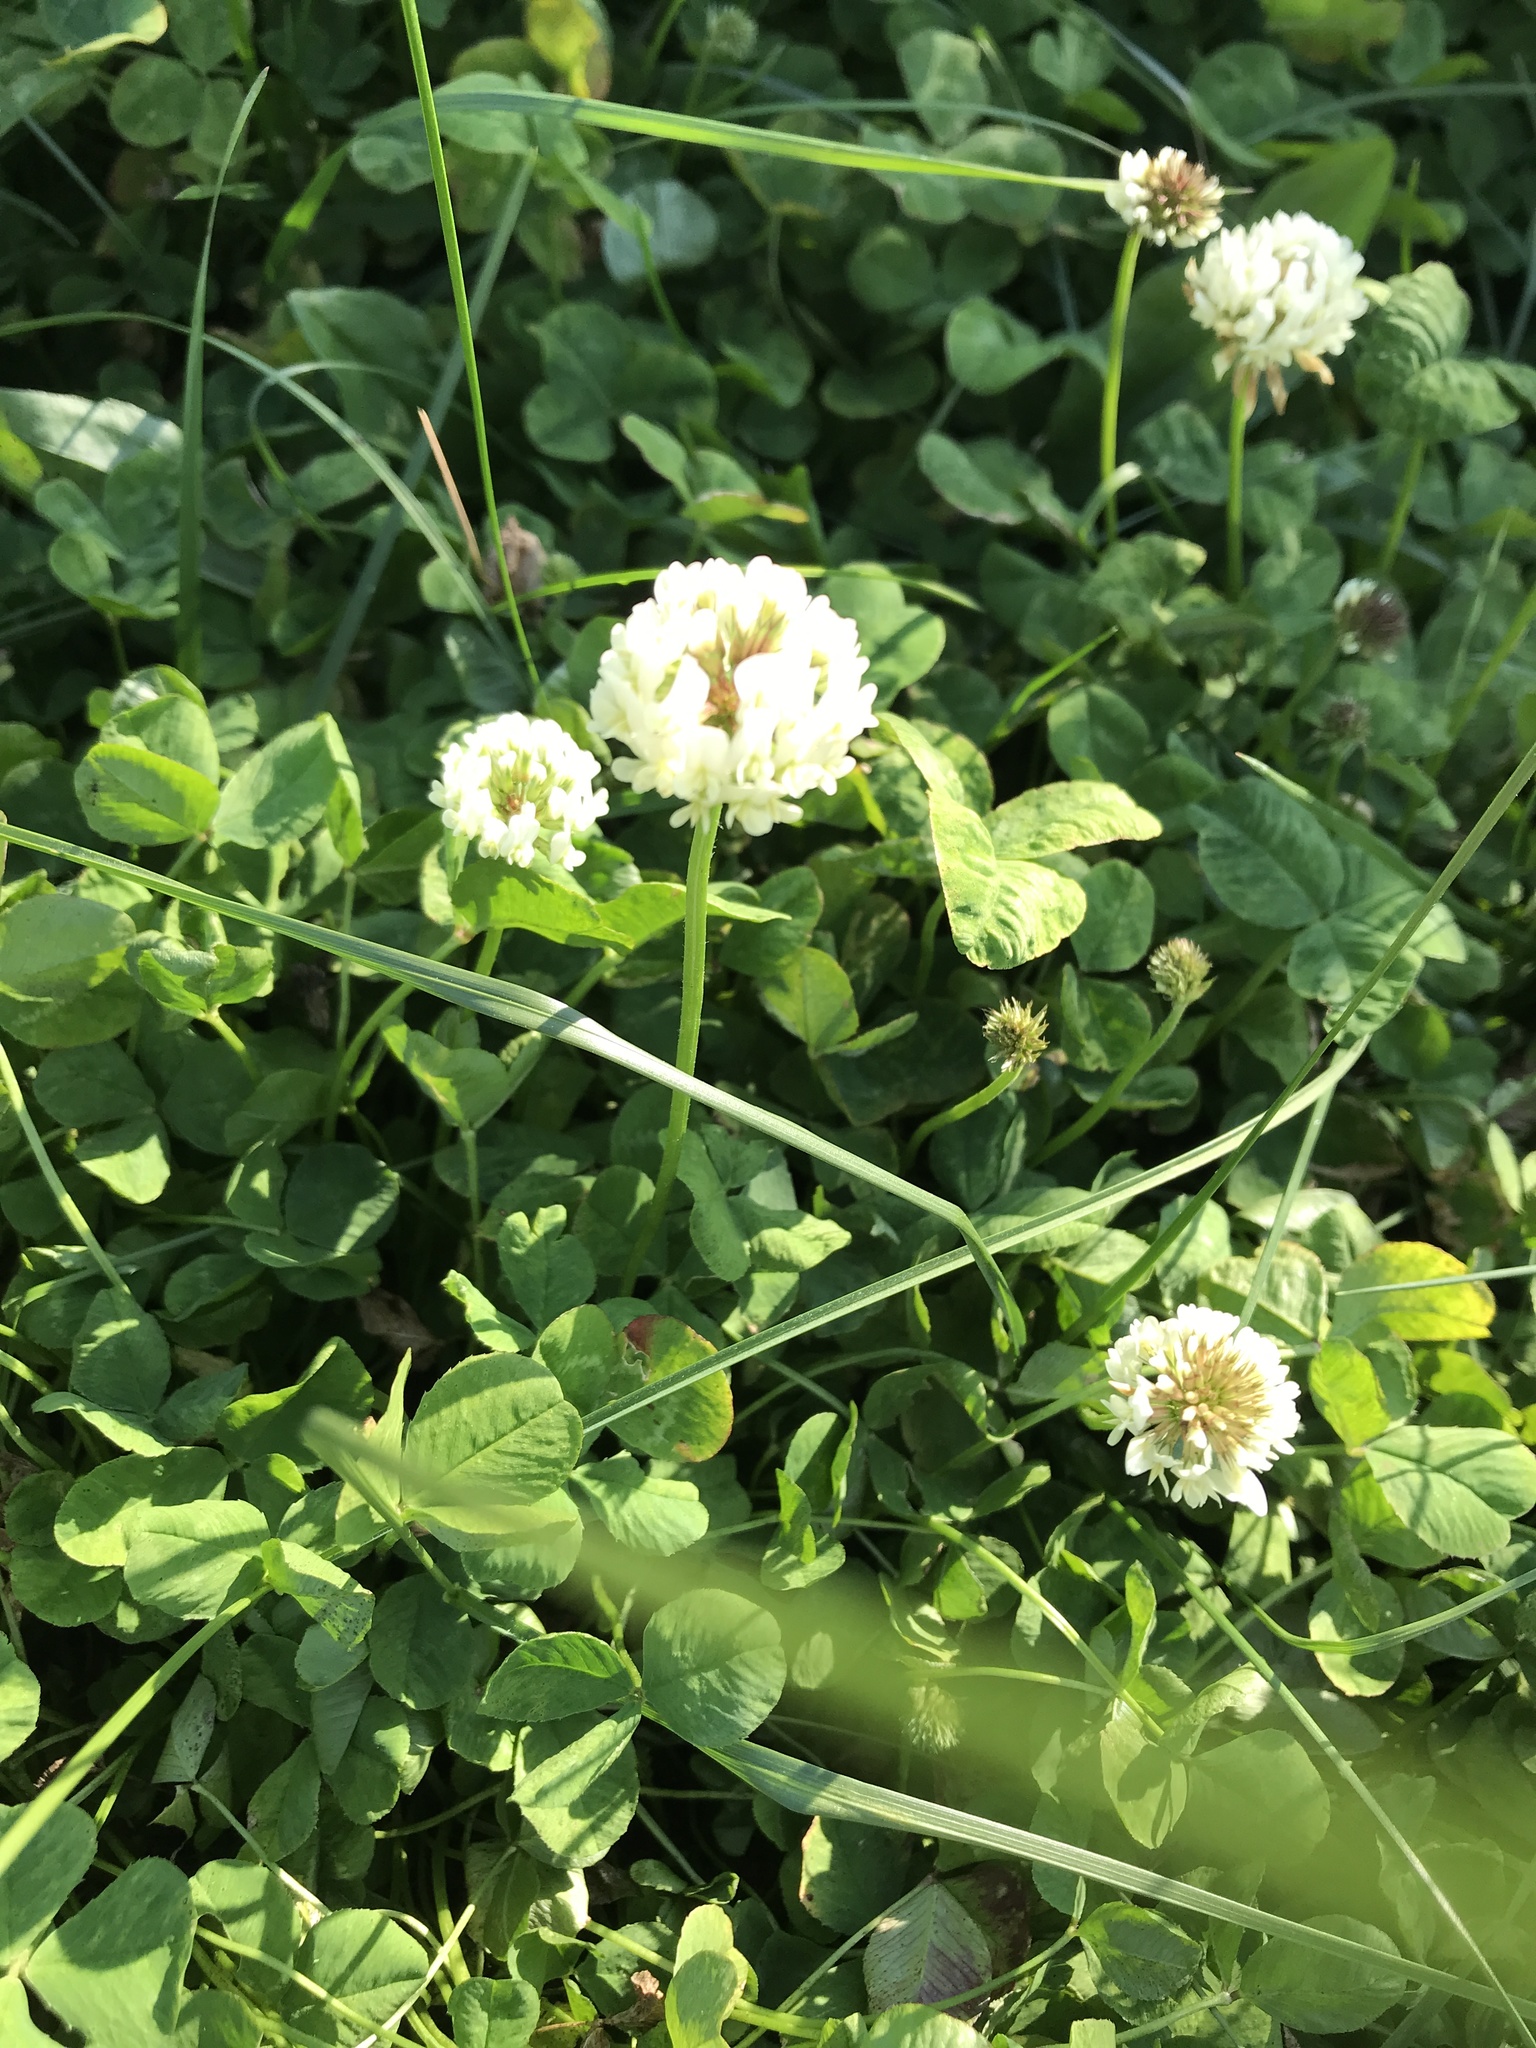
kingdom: Plantae
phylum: Tracheophyta
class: Magnoliopsida
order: Fabales
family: Fabaceae
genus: Trifolium
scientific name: Trifolium repens
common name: White clover
